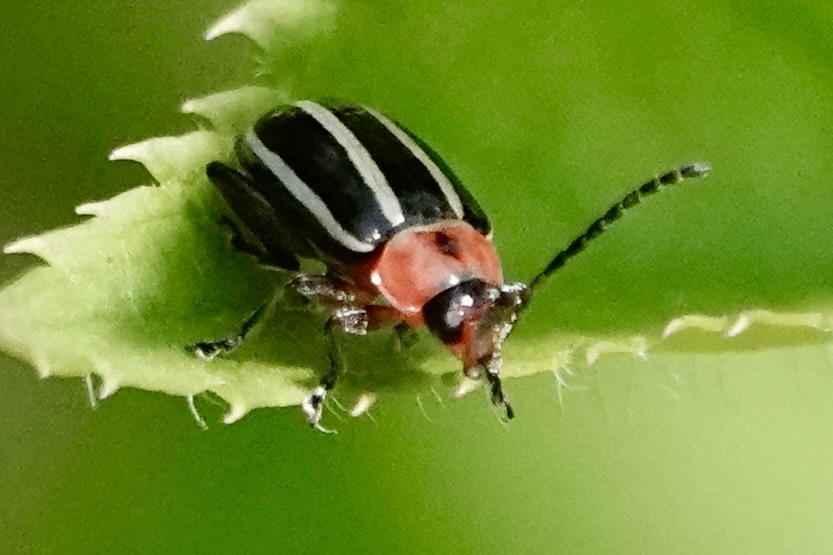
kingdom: Animalia
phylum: Arthropoda
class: Insecta
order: Coleoptera
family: Chrysomelidae
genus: Disonycha
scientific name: Disonycha glabrata
